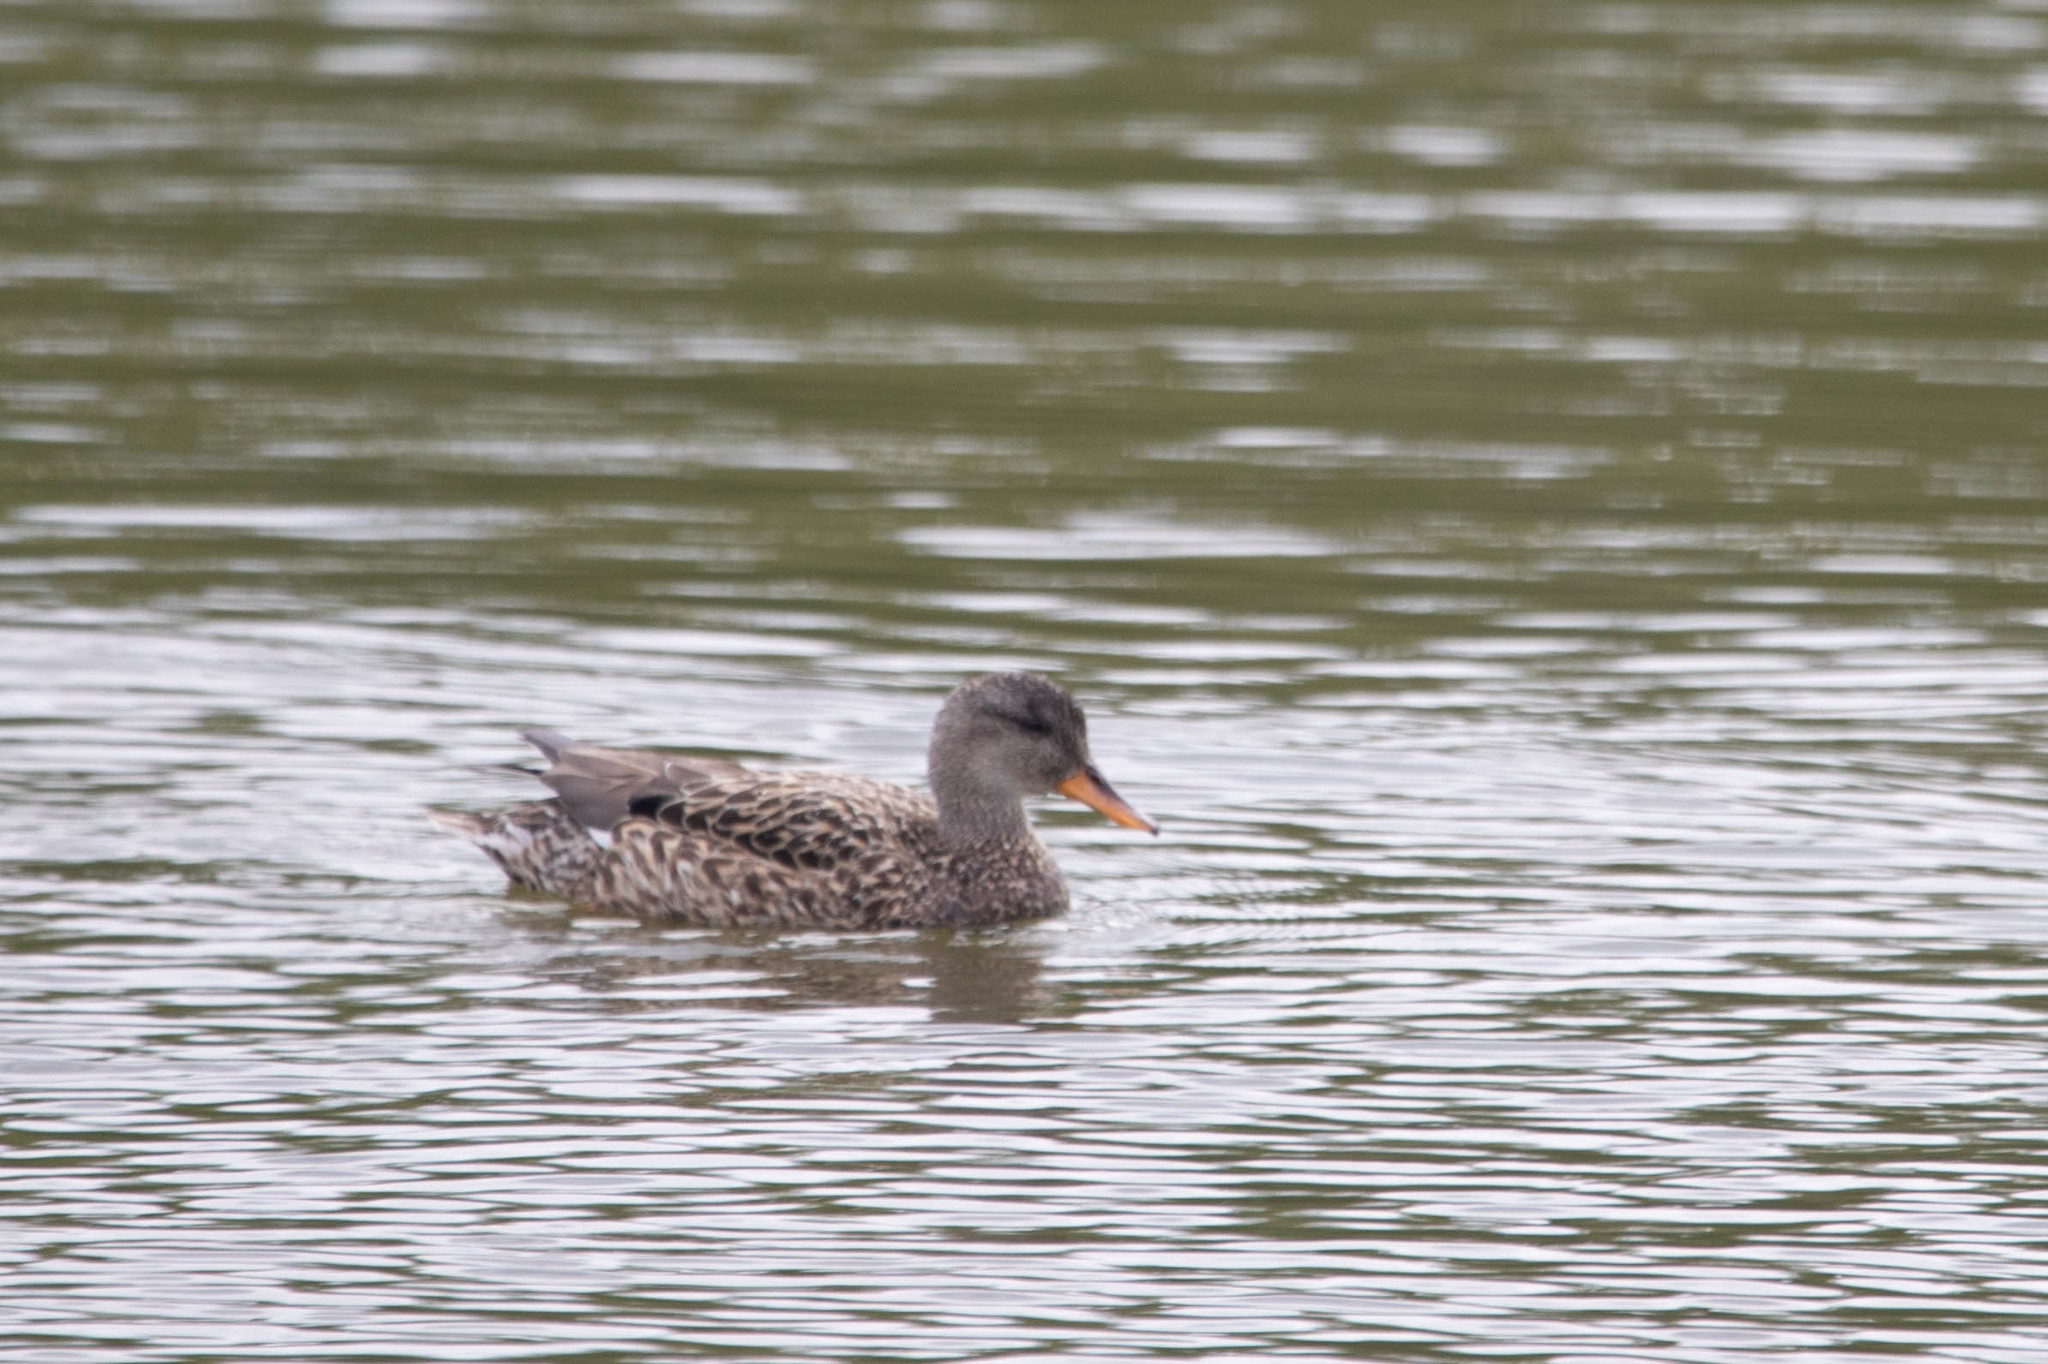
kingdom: Animalia
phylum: Chordata
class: Aves
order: Anseriformes
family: Anatidae
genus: Mareca
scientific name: Mareca strepera
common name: Gadwall
